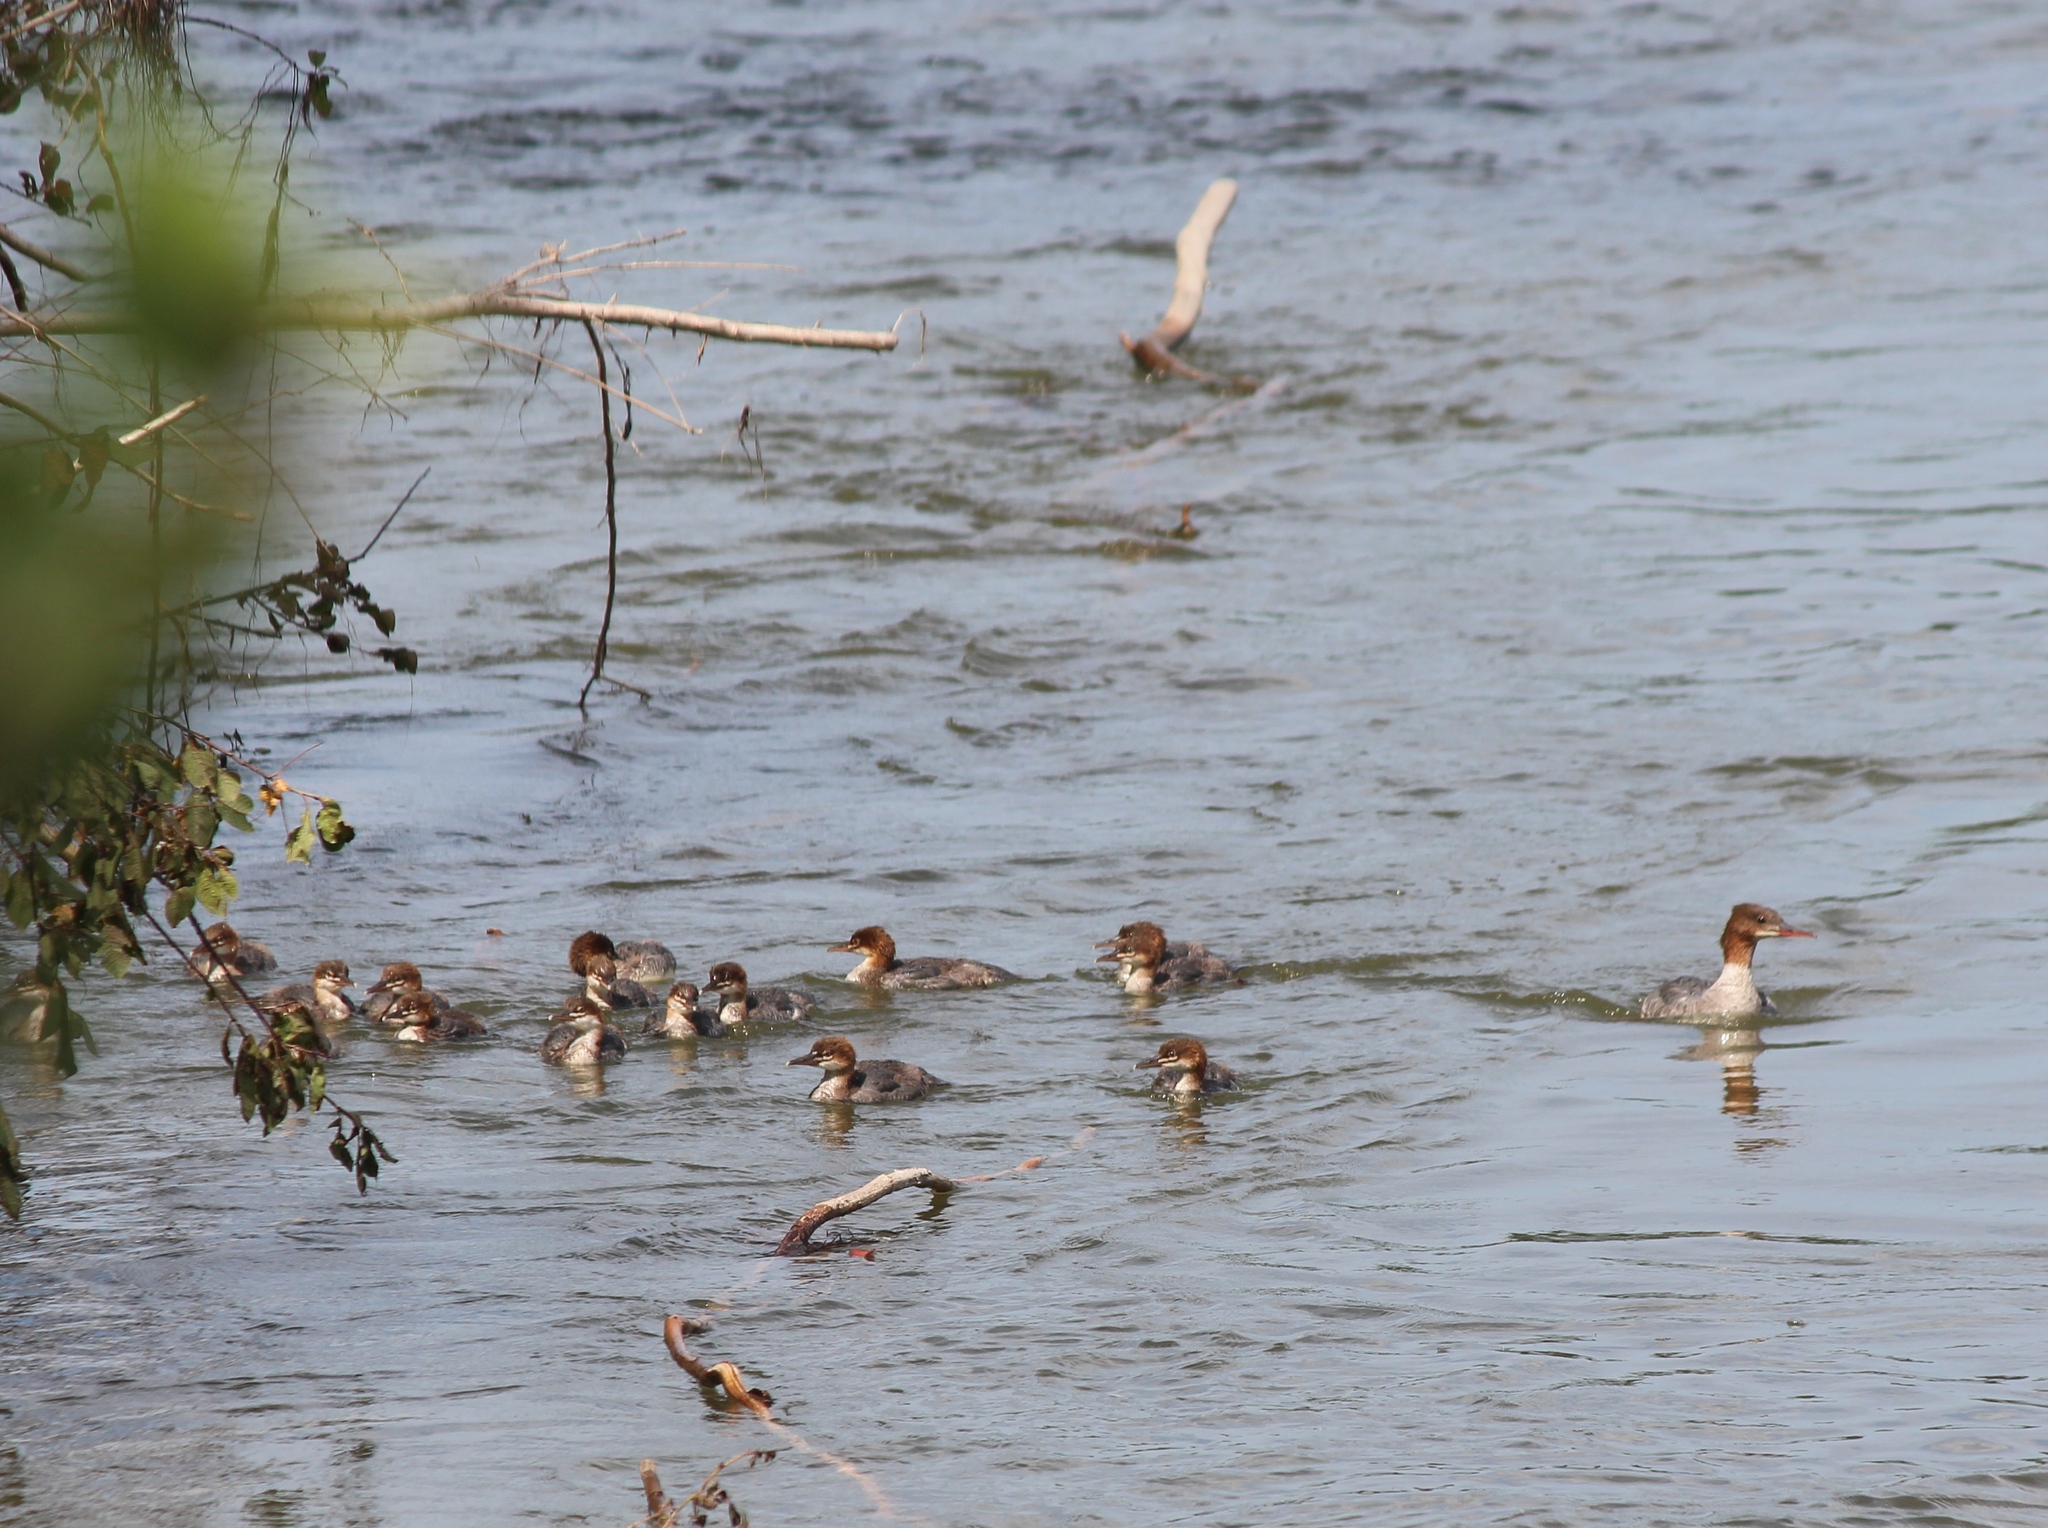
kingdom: Animalia
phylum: Chordata
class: Aves
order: Anseriformes
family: Anatidae
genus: Mergus
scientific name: Mergus merganser
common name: Common merganser
